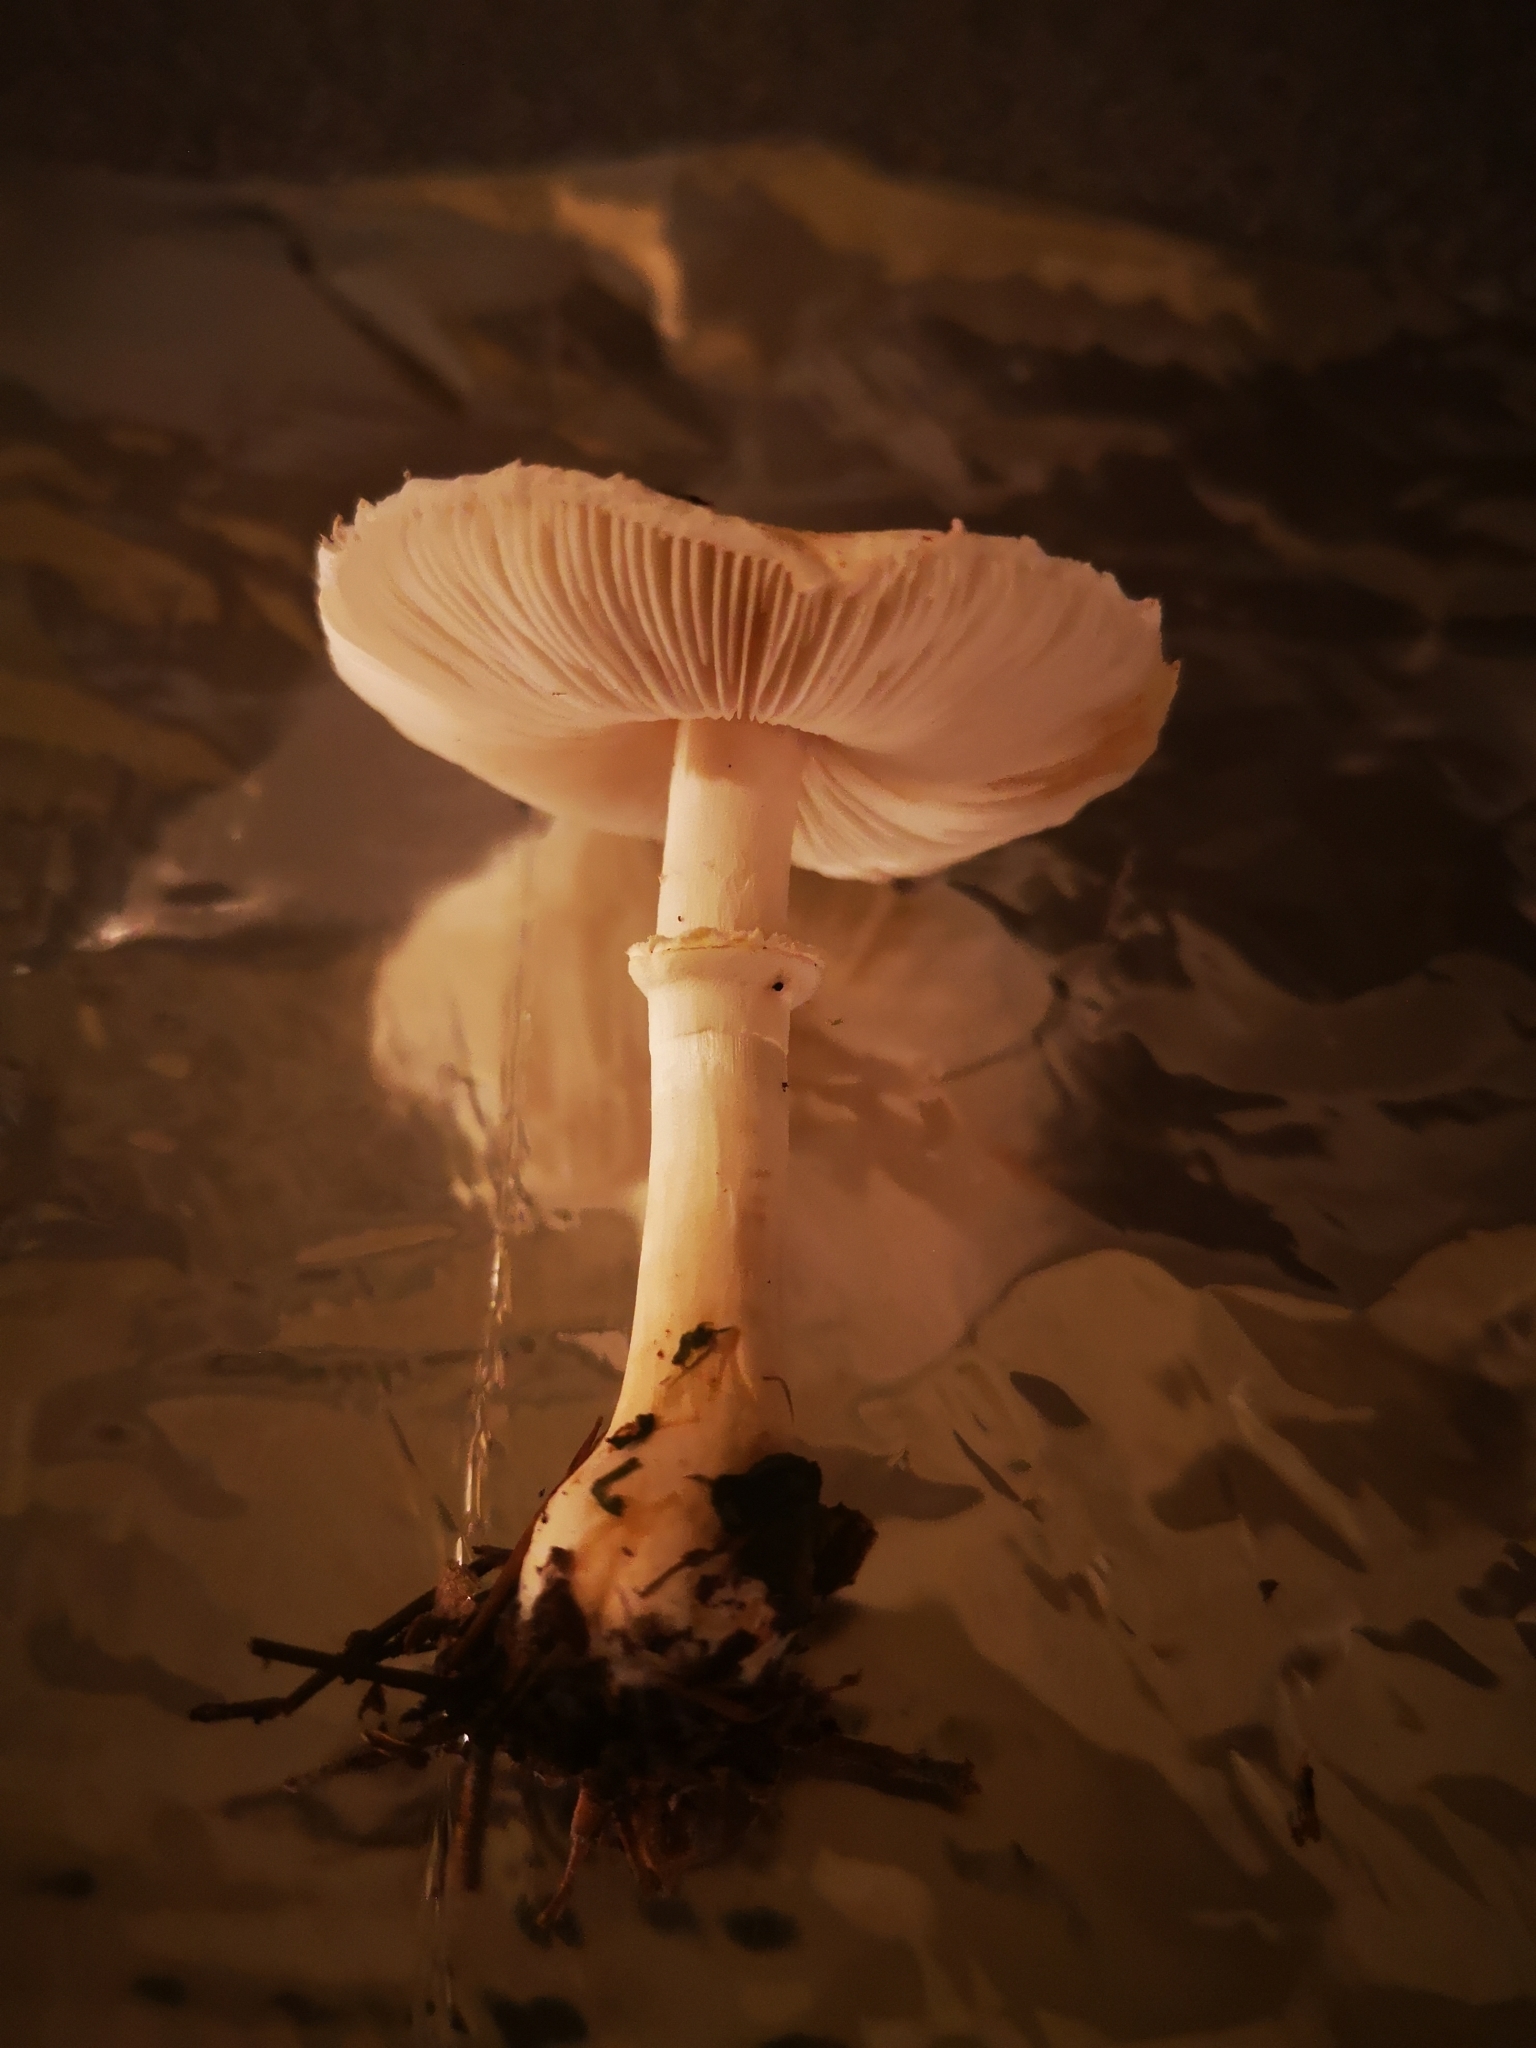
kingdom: Fungi
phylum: Basidiomycota
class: Agaricomycetes
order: Agaricales
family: Agaricaceae
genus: Leucoagaricus
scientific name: Leucoagaricus leucothites
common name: White dapperling
